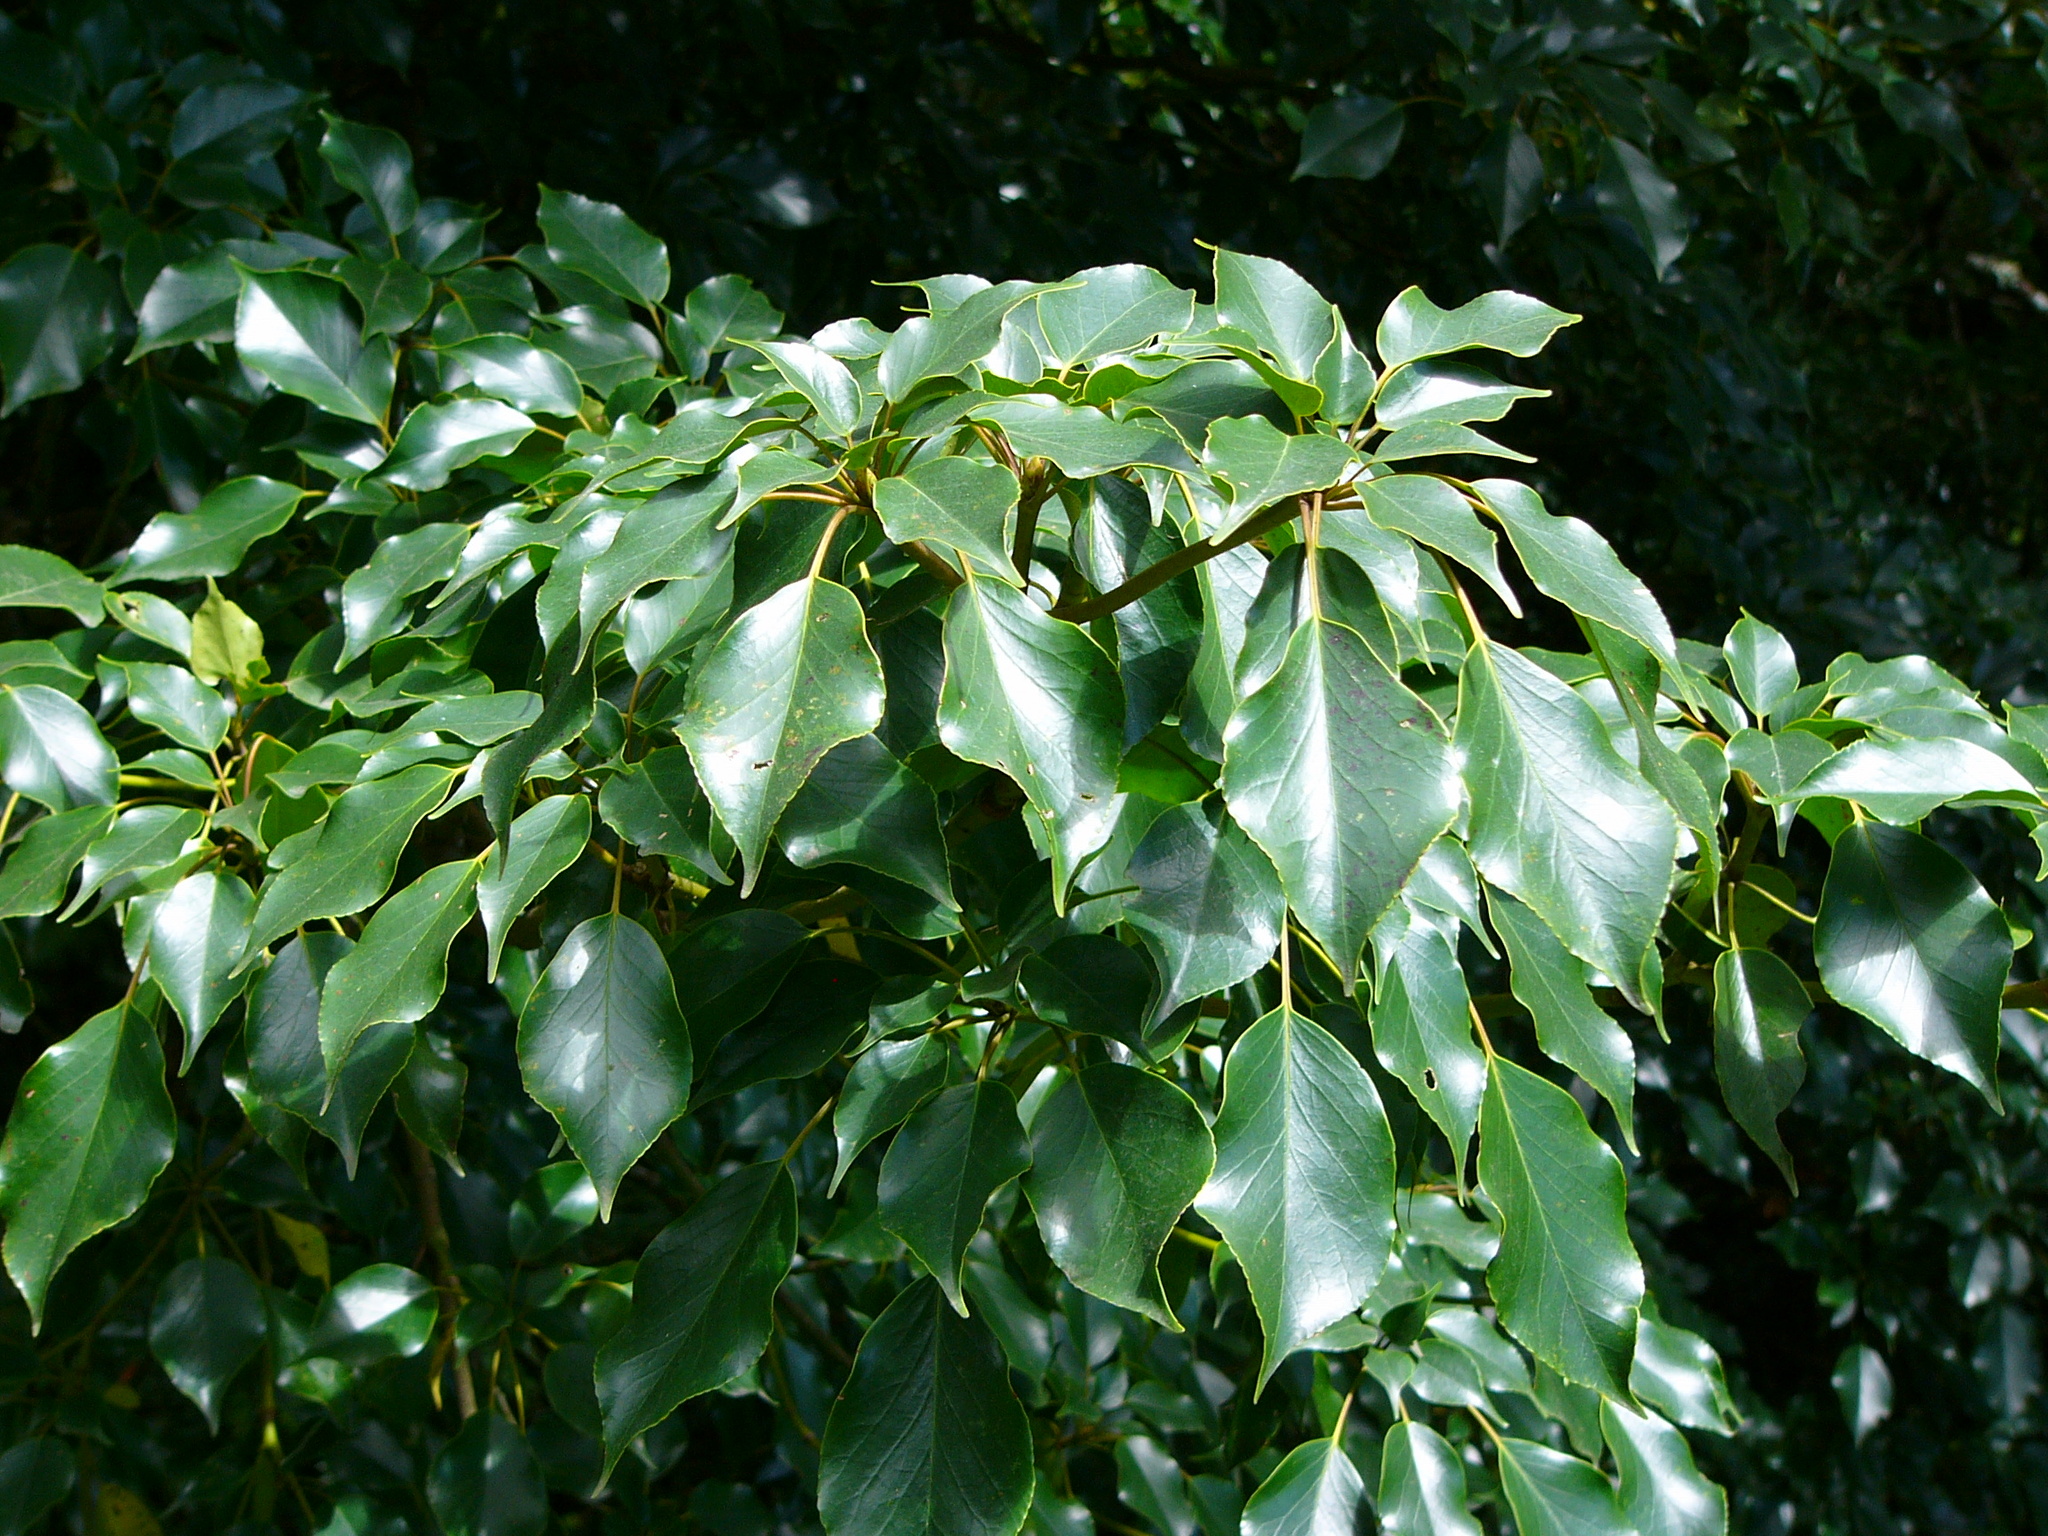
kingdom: Plantae
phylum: Tracheophyta
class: Magnoliopsida
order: Trochodendrales
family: Trochodendraceae
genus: Trochodendron
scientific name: Trochodendron aralioides
